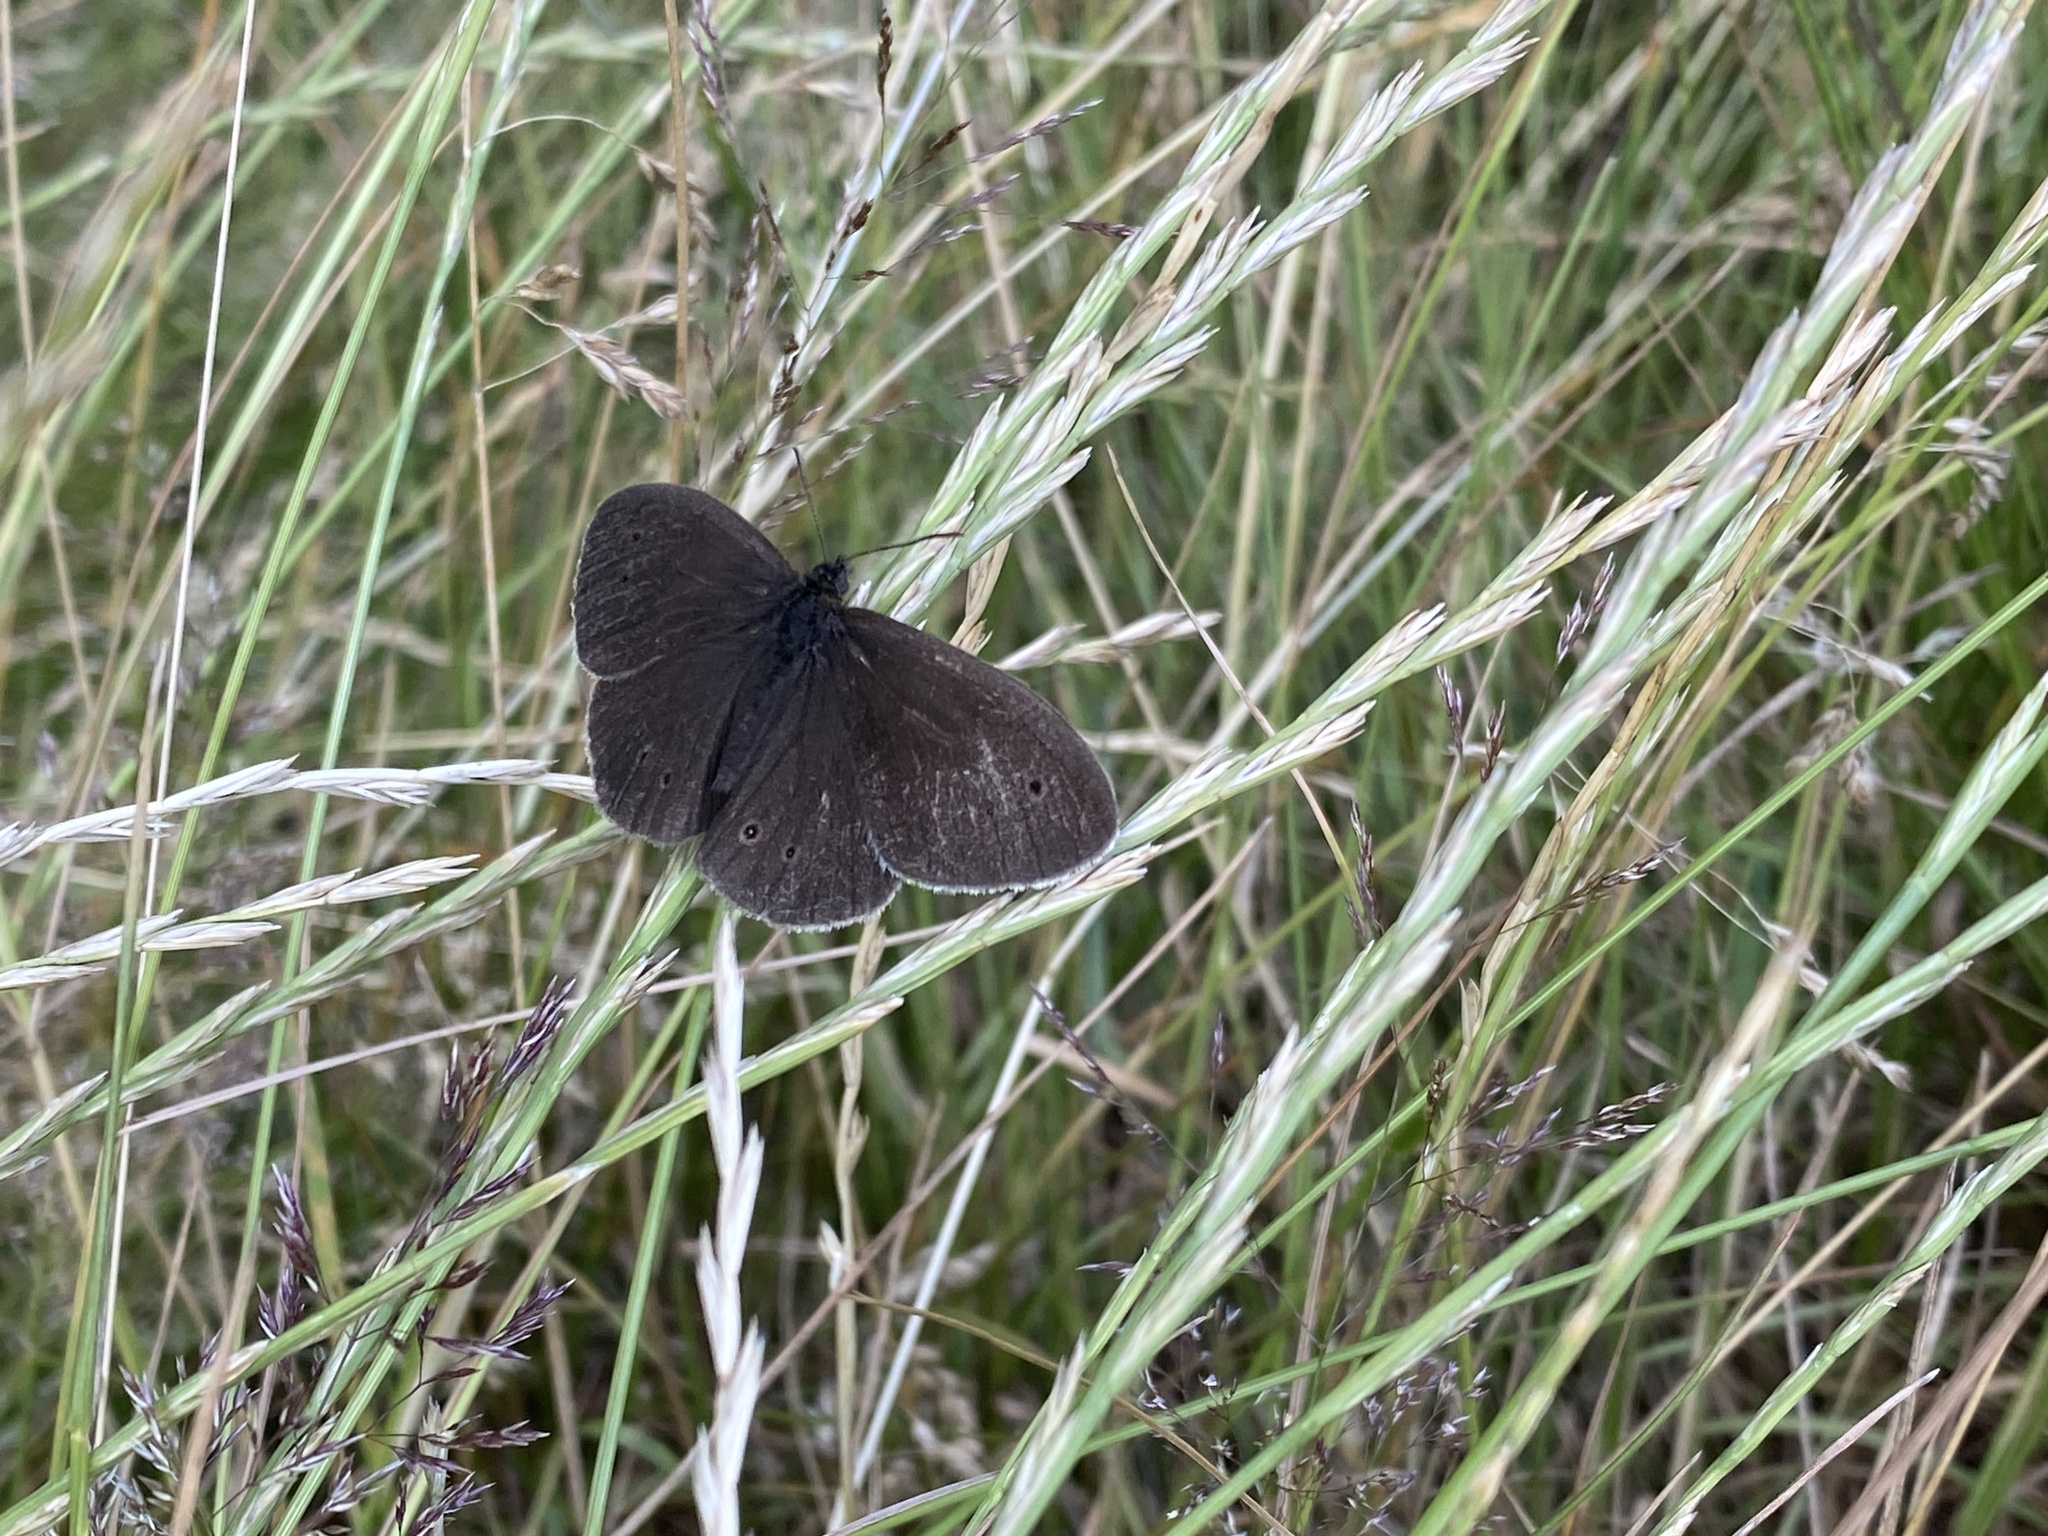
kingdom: Animalia
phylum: Arthropoda
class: Insecta
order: Lepidoptera
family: Nymphalidae
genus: Aphantopus
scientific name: Aphantopus hyperantus
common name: Ringlet
